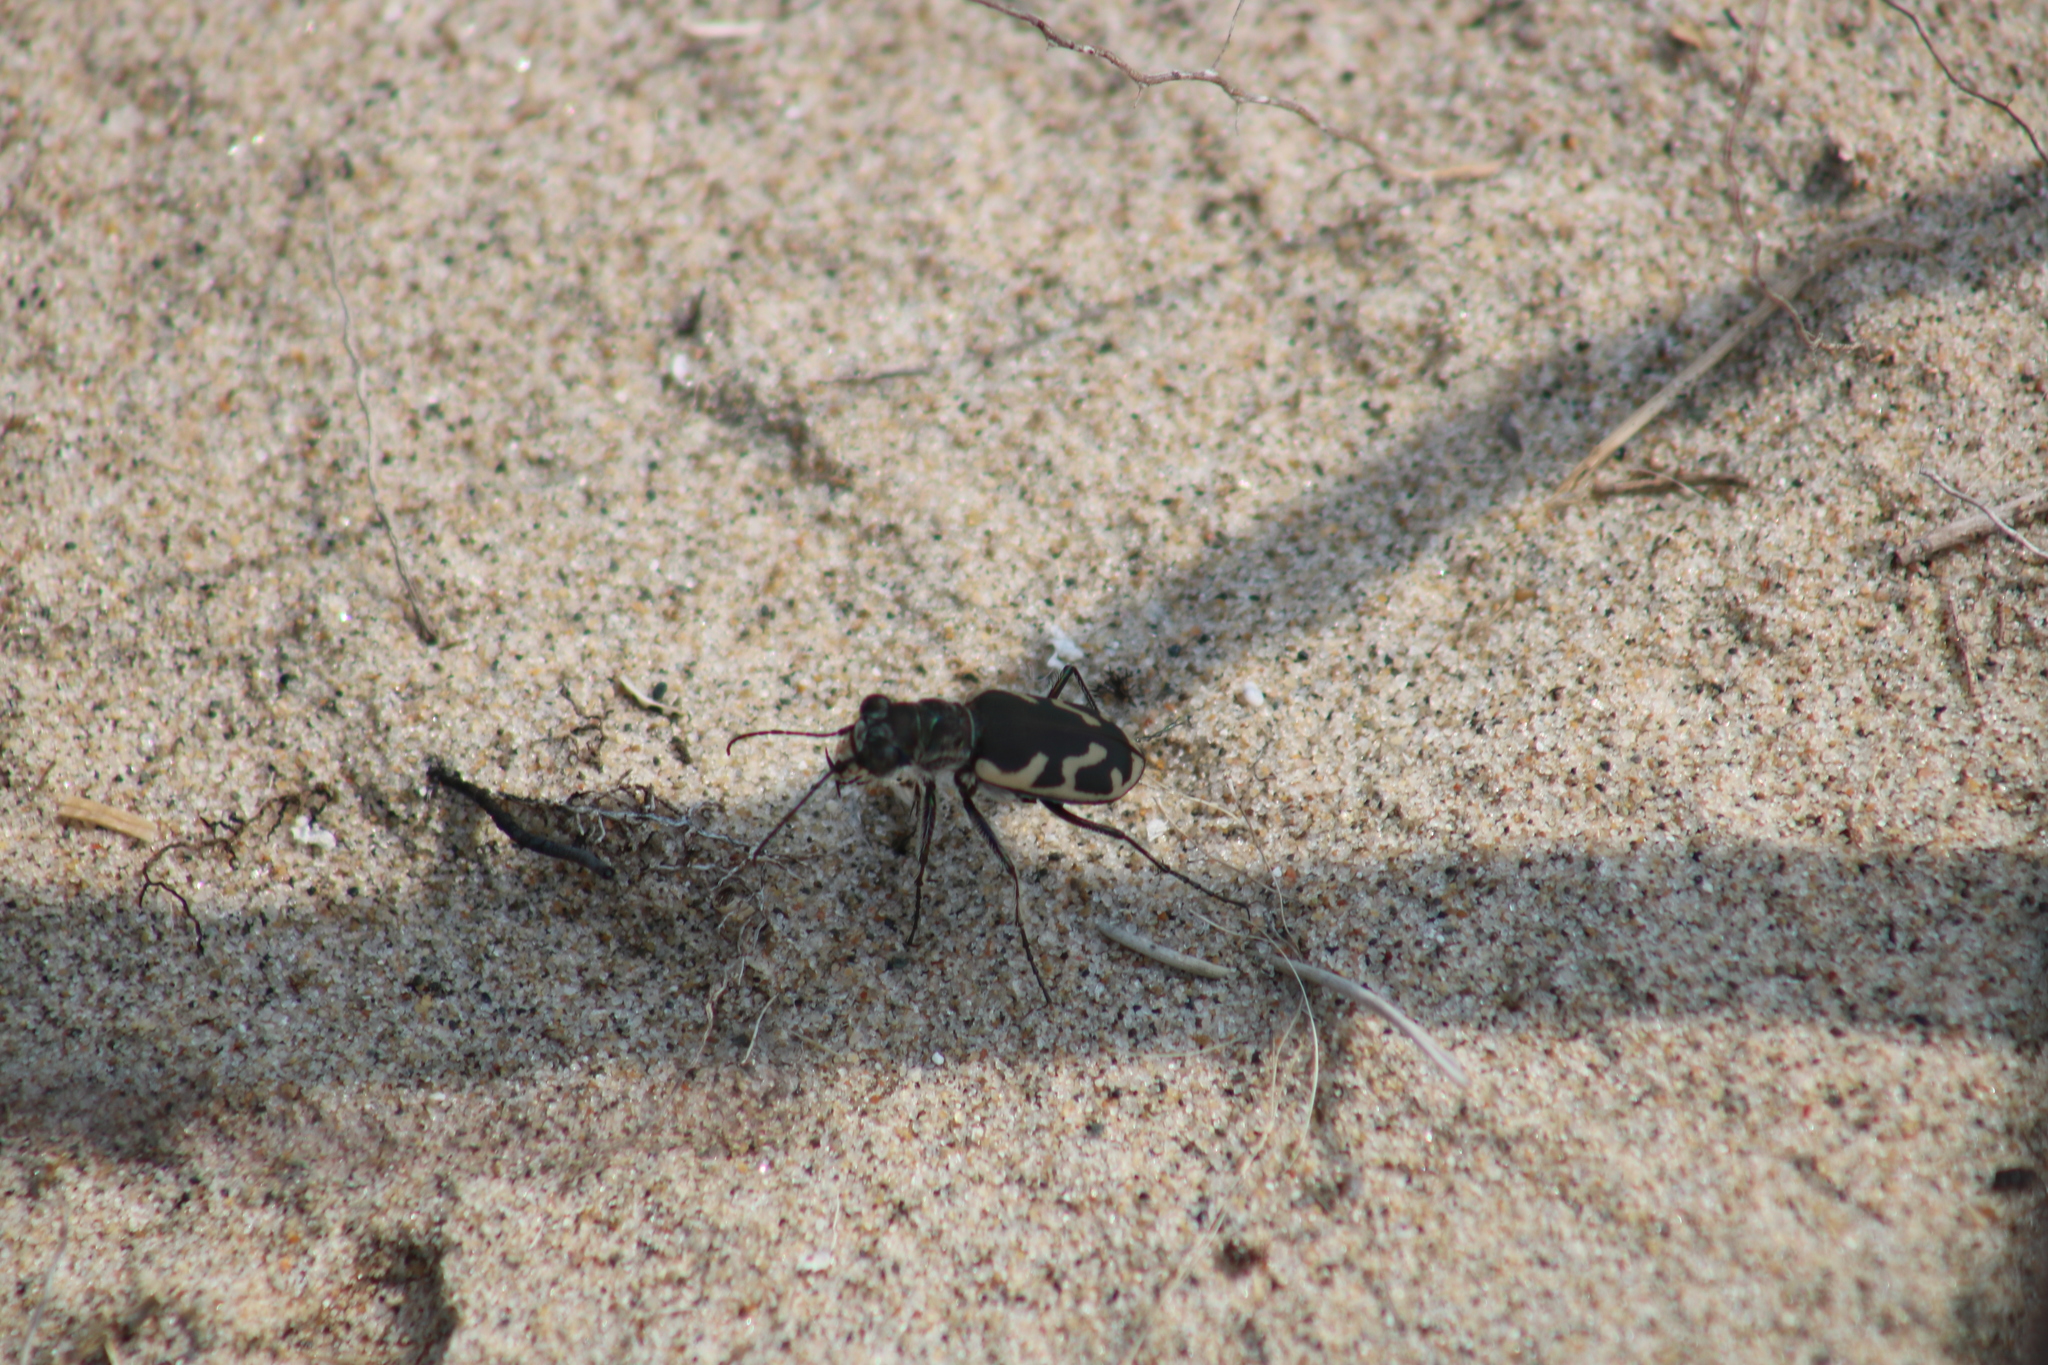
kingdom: Animalia
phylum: Arthropoda
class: Insecta
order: Coleoptera
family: Carabidae
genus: Cicindela
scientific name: Cicindela formosa
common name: Big sand tiger beetle
